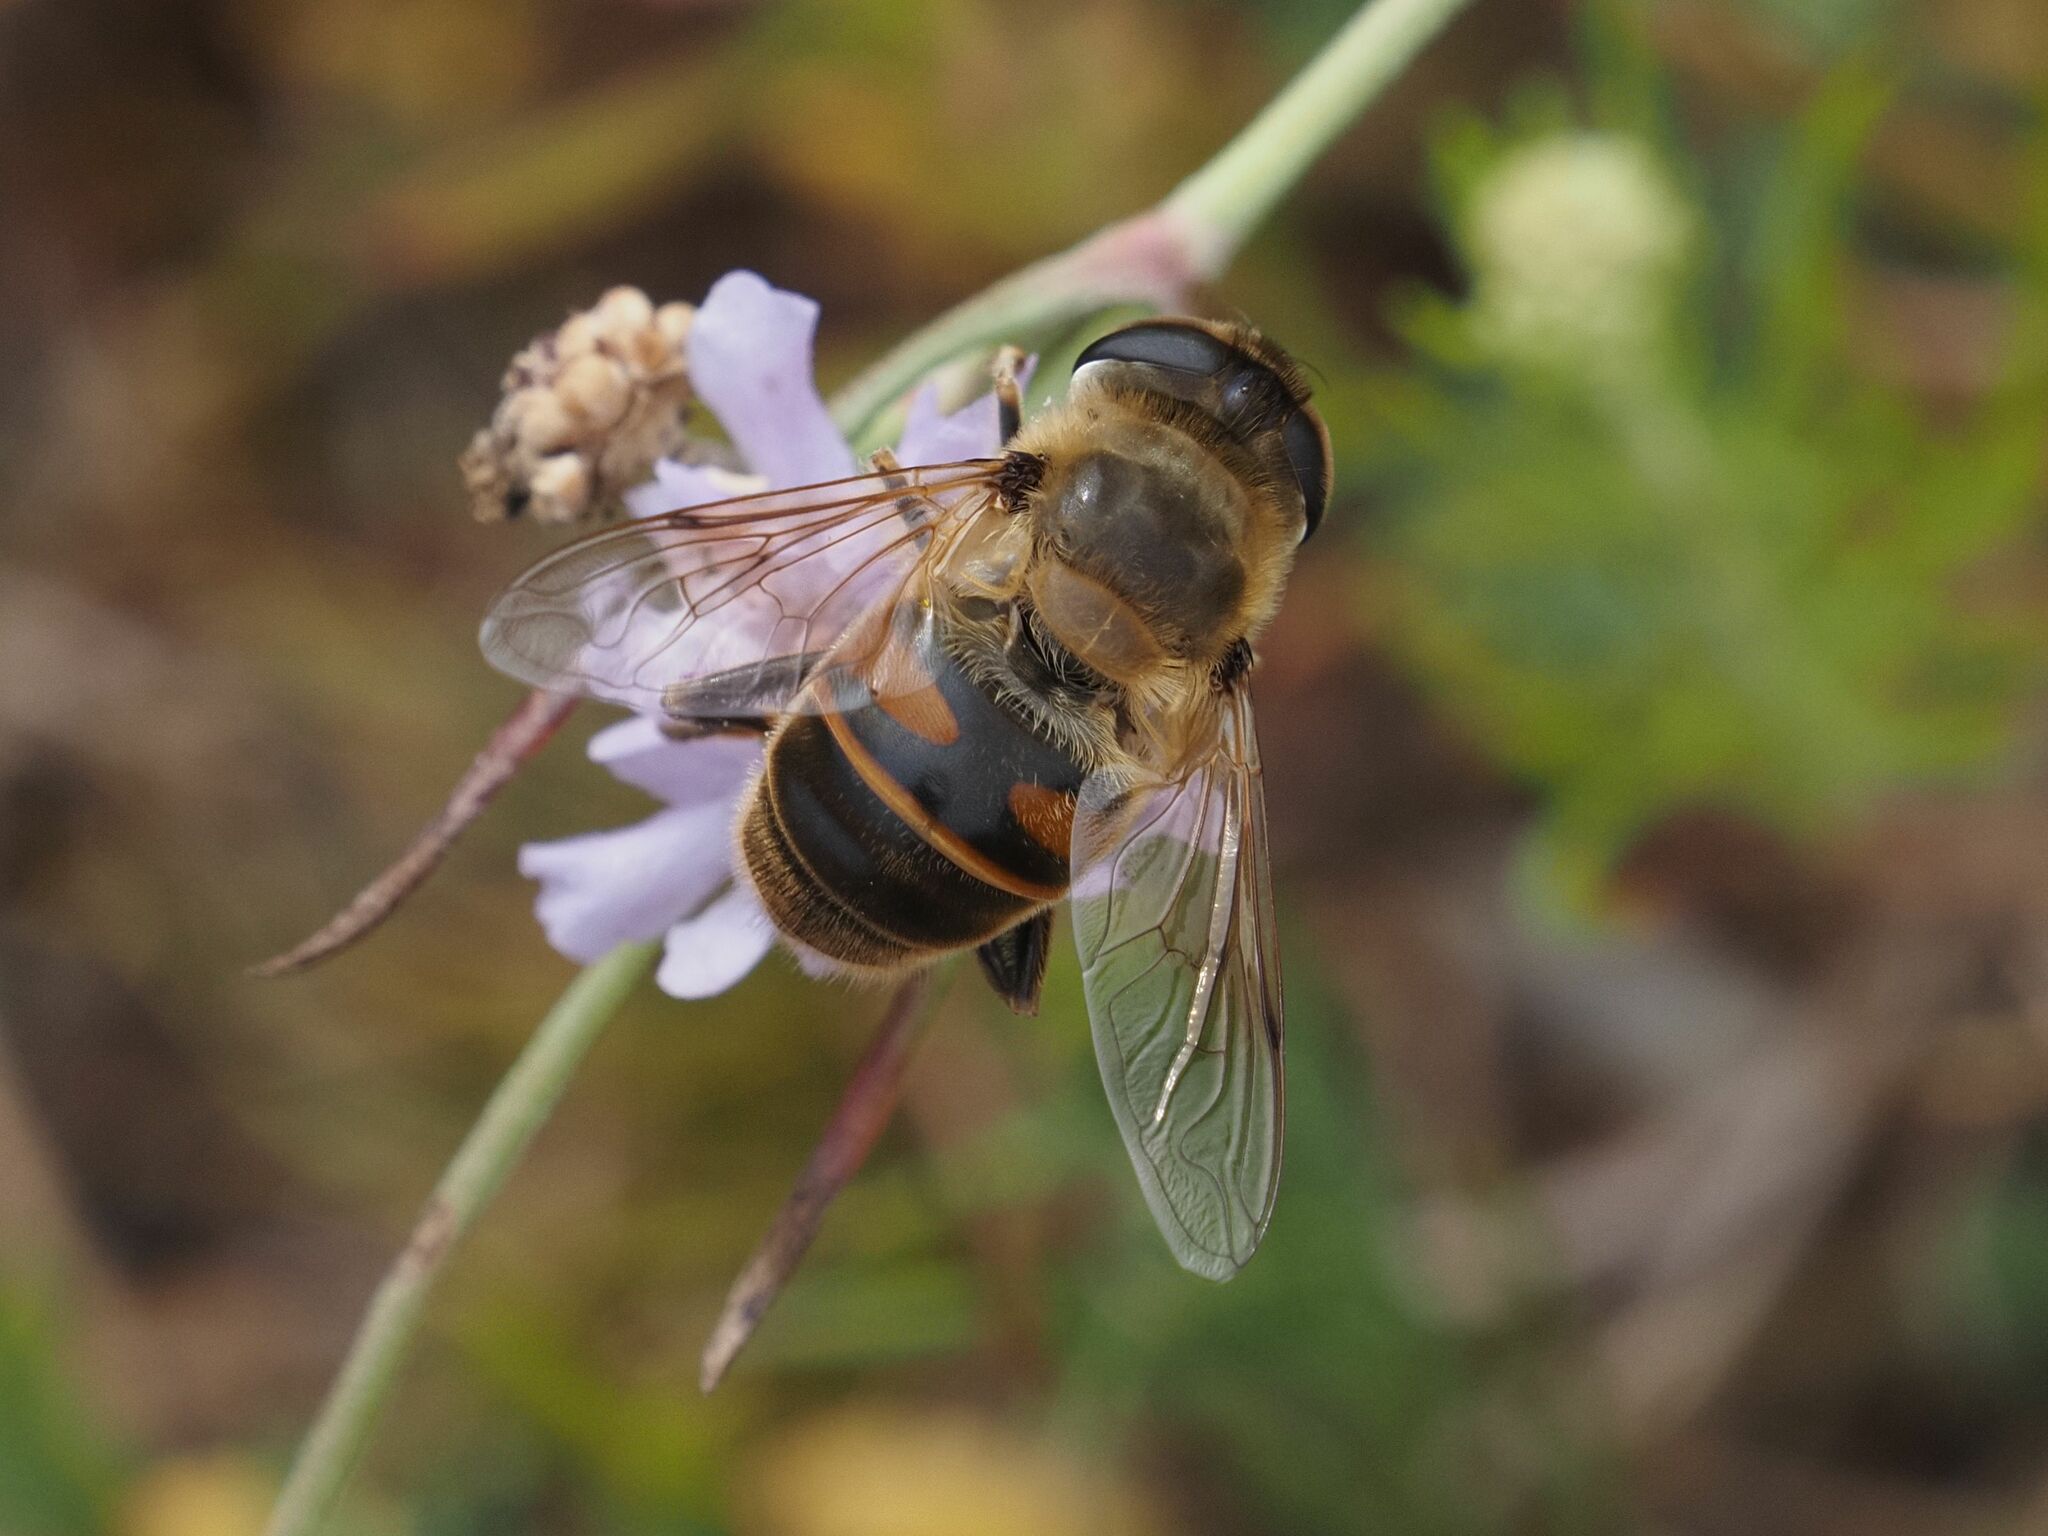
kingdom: Animalia
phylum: Arthropoda
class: Insecta
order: Diptera
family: Syrphidae
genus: Eristalis
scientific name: Eristalis tenax
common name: Drone fly
